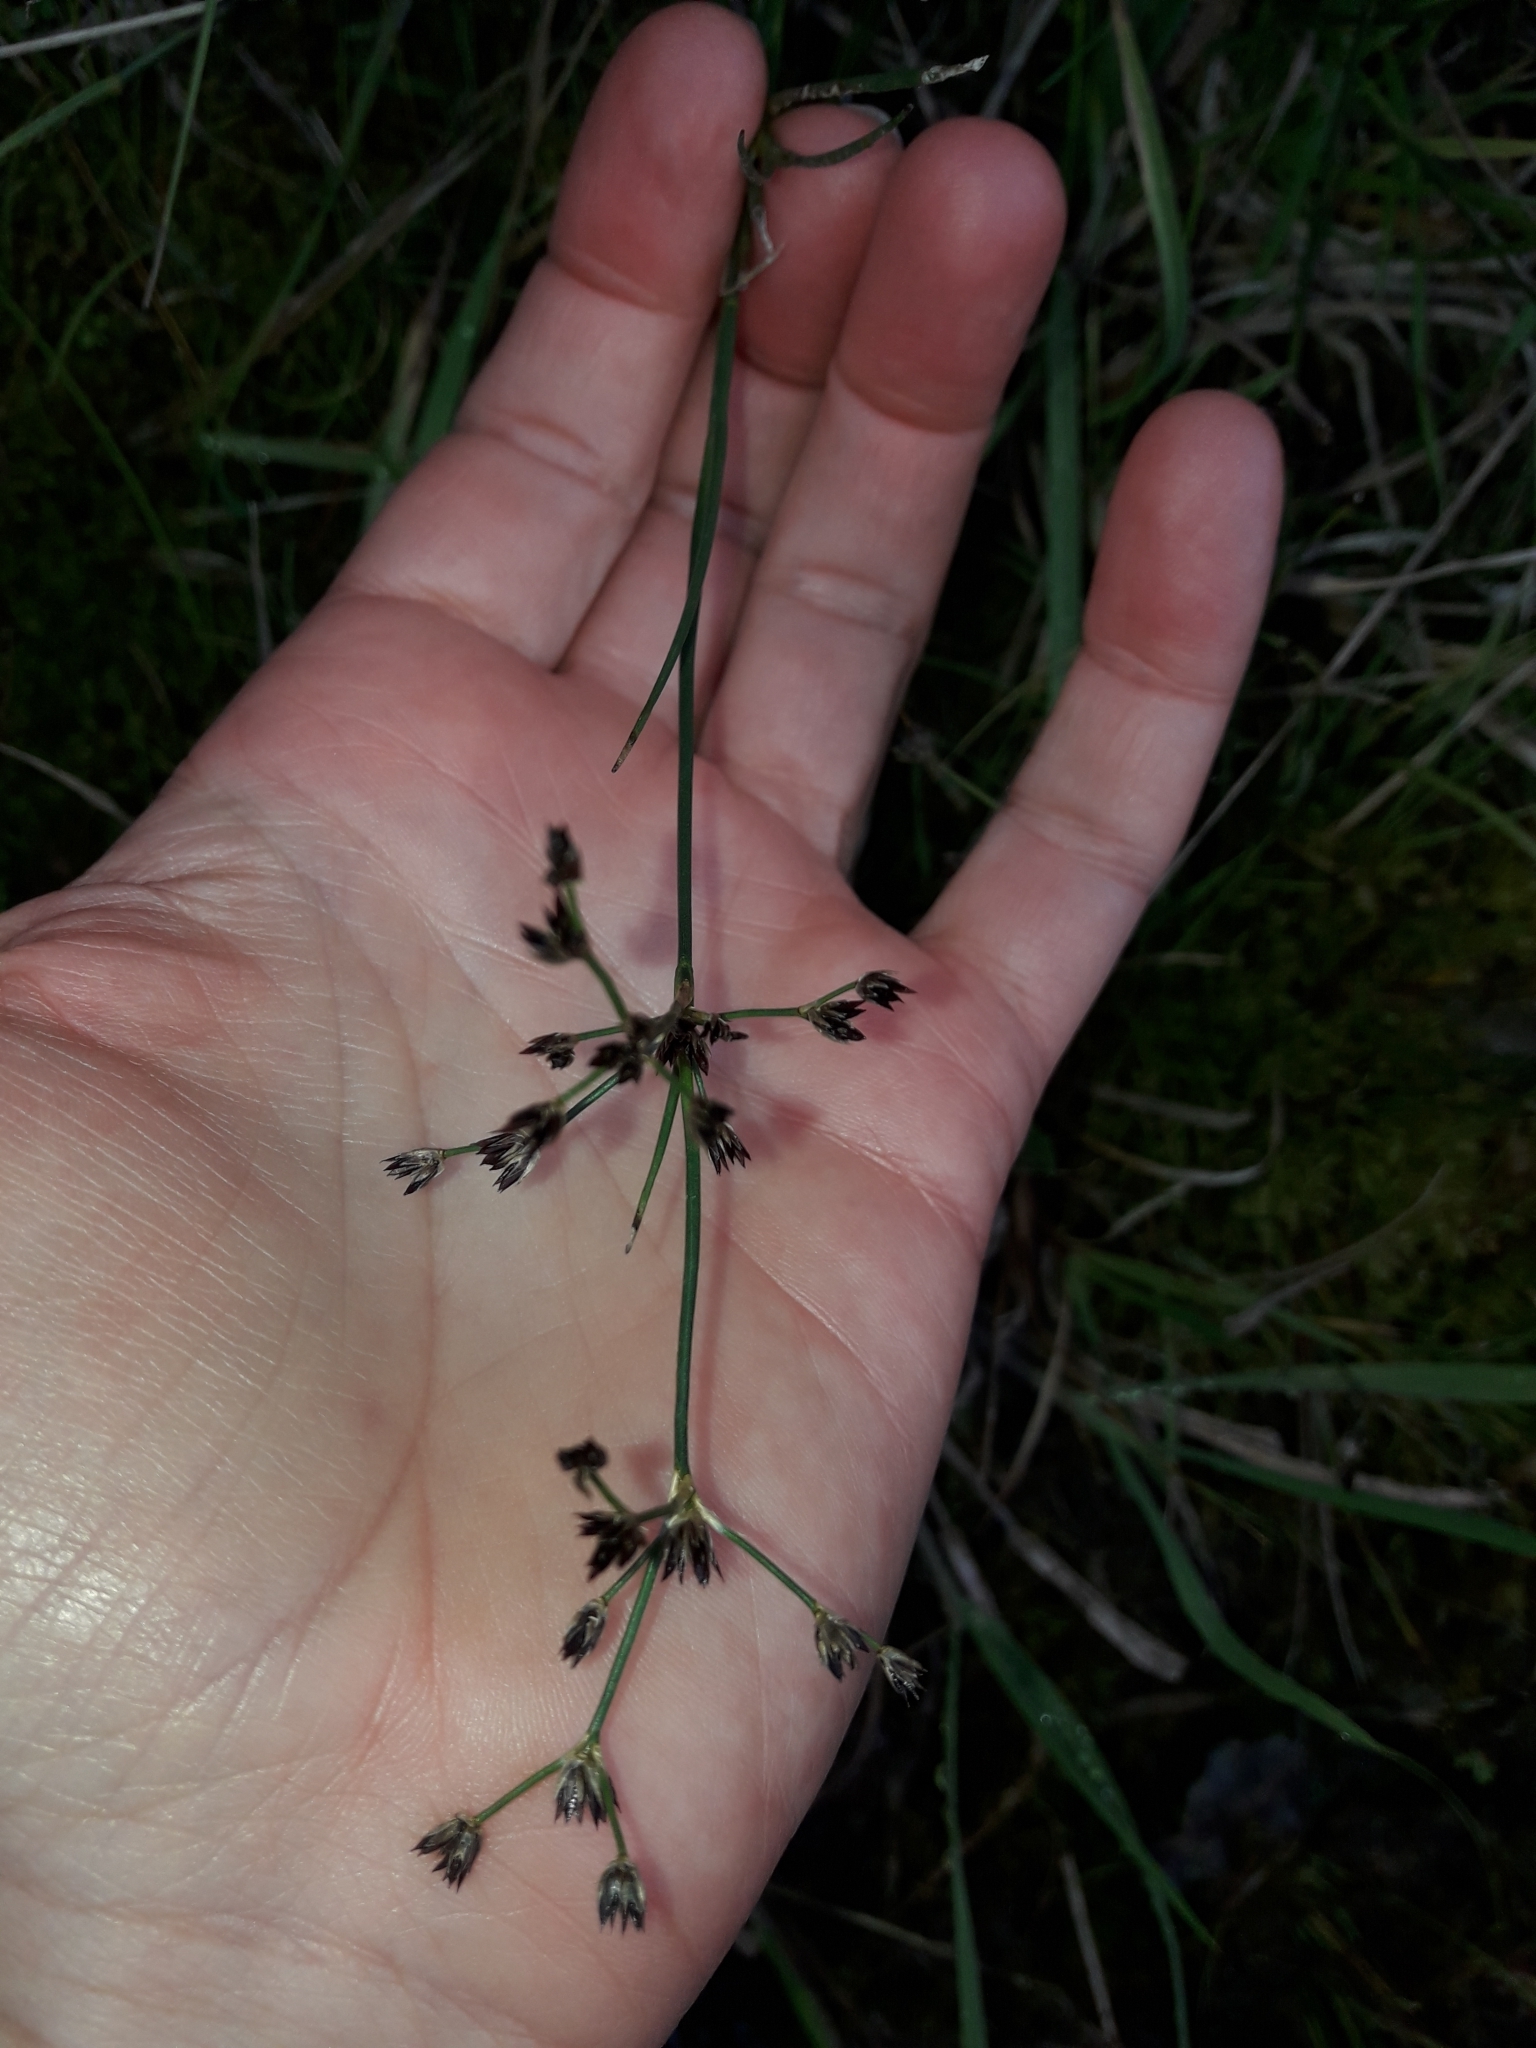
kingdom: Plantae
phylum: Tracheophyta
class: Liliopsida
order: Poales
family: Juncaceae
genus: Juncus
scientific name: Juncus articulatus
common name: Jointed rush
